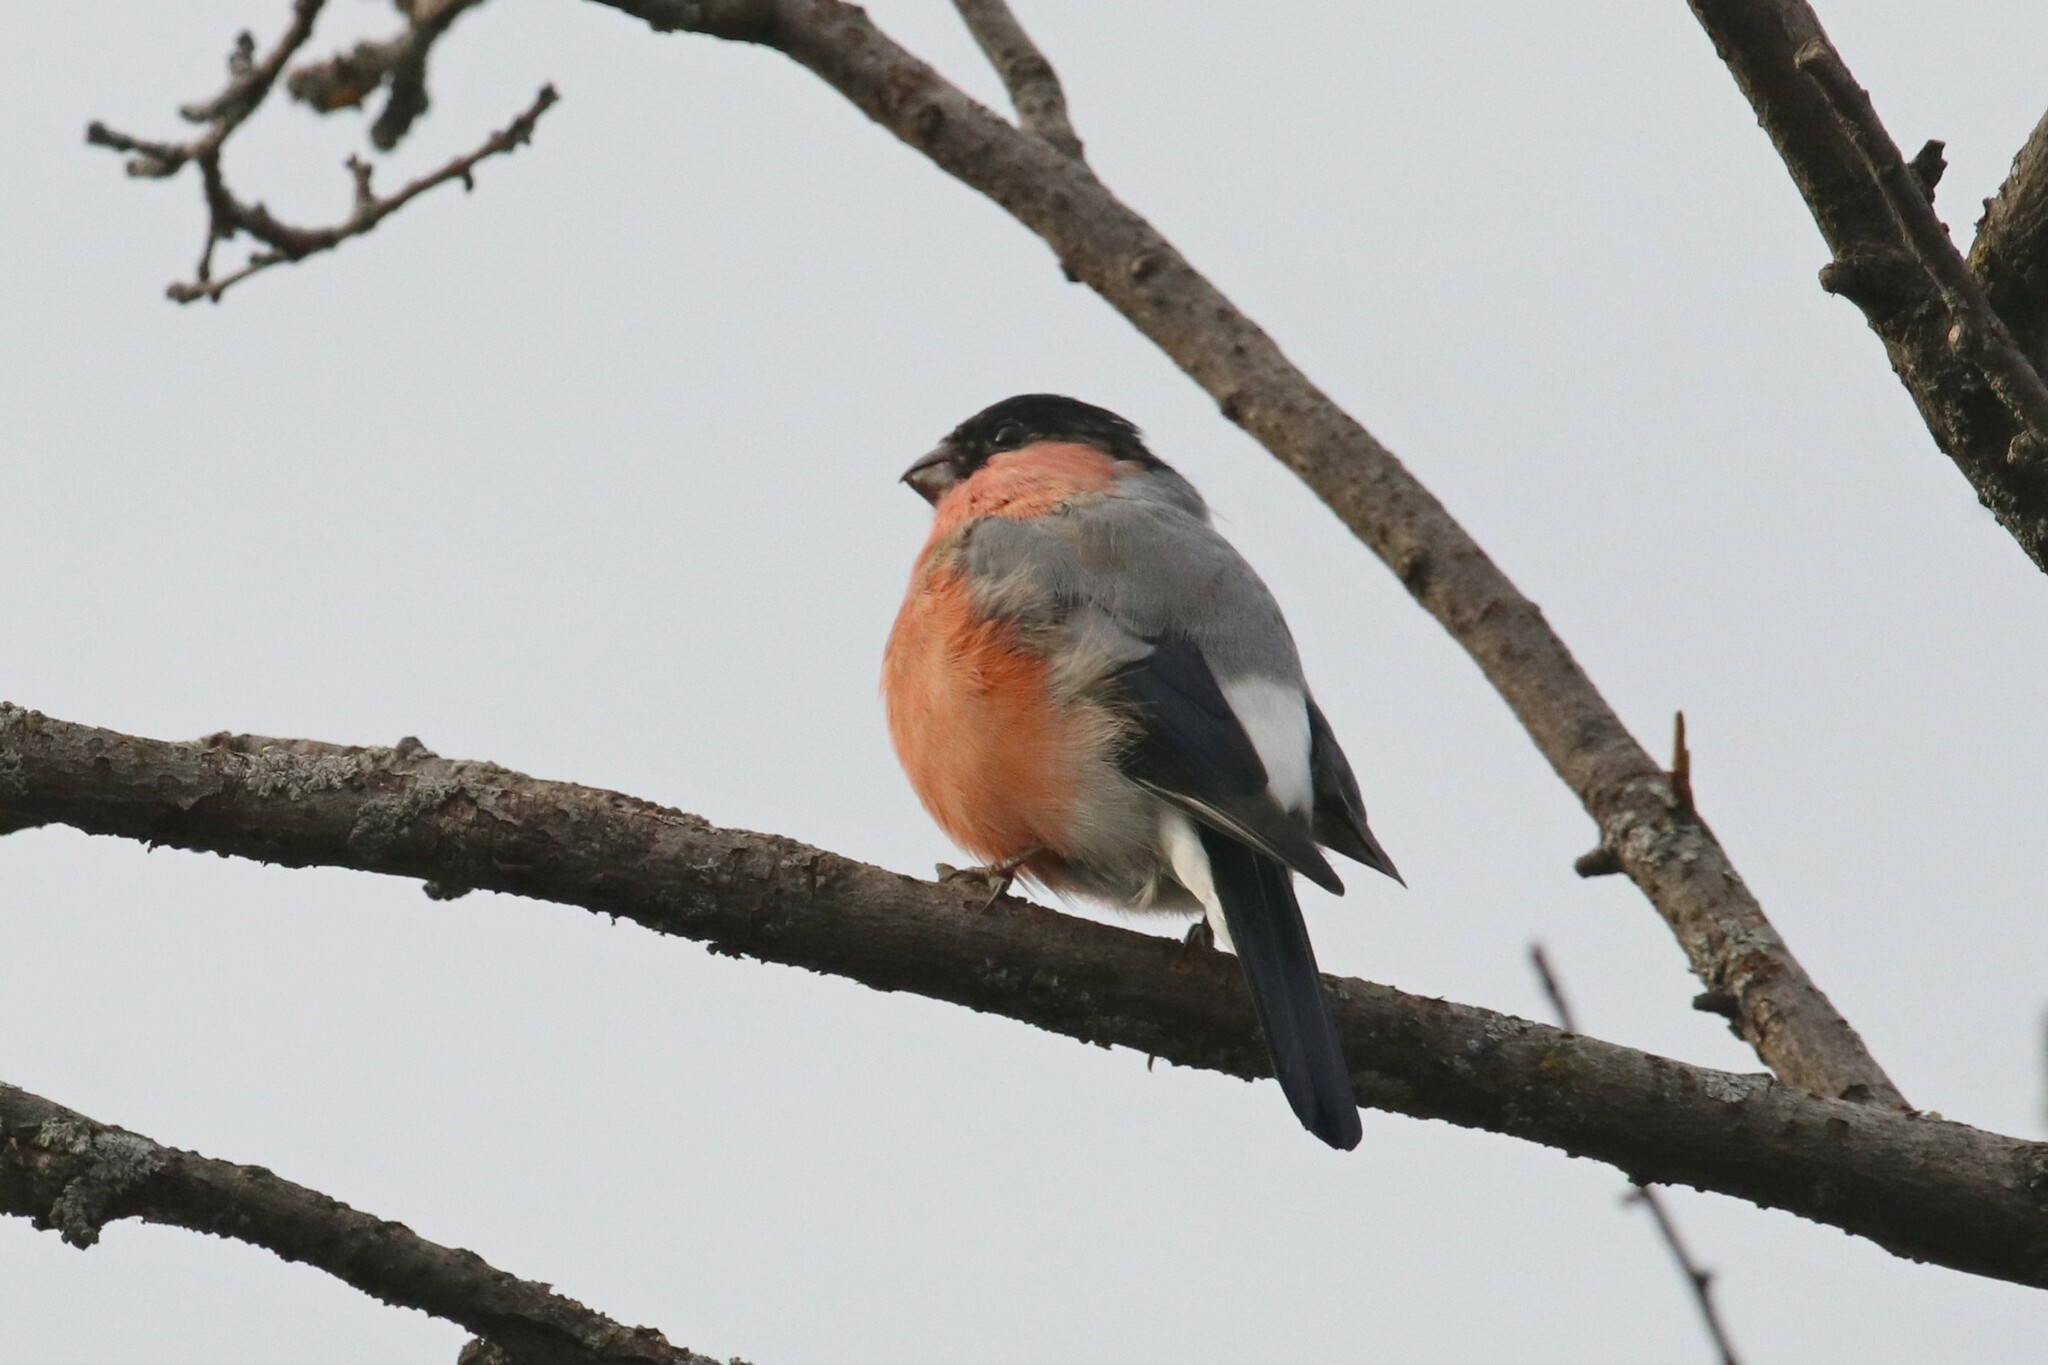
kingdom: Animalia
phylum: Chordata
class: Aves
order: Passeriformes
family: Fringillidae
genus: Pyrrhula
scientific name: Pyrrhula pyrrhula
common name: Eurasian bullfinch
